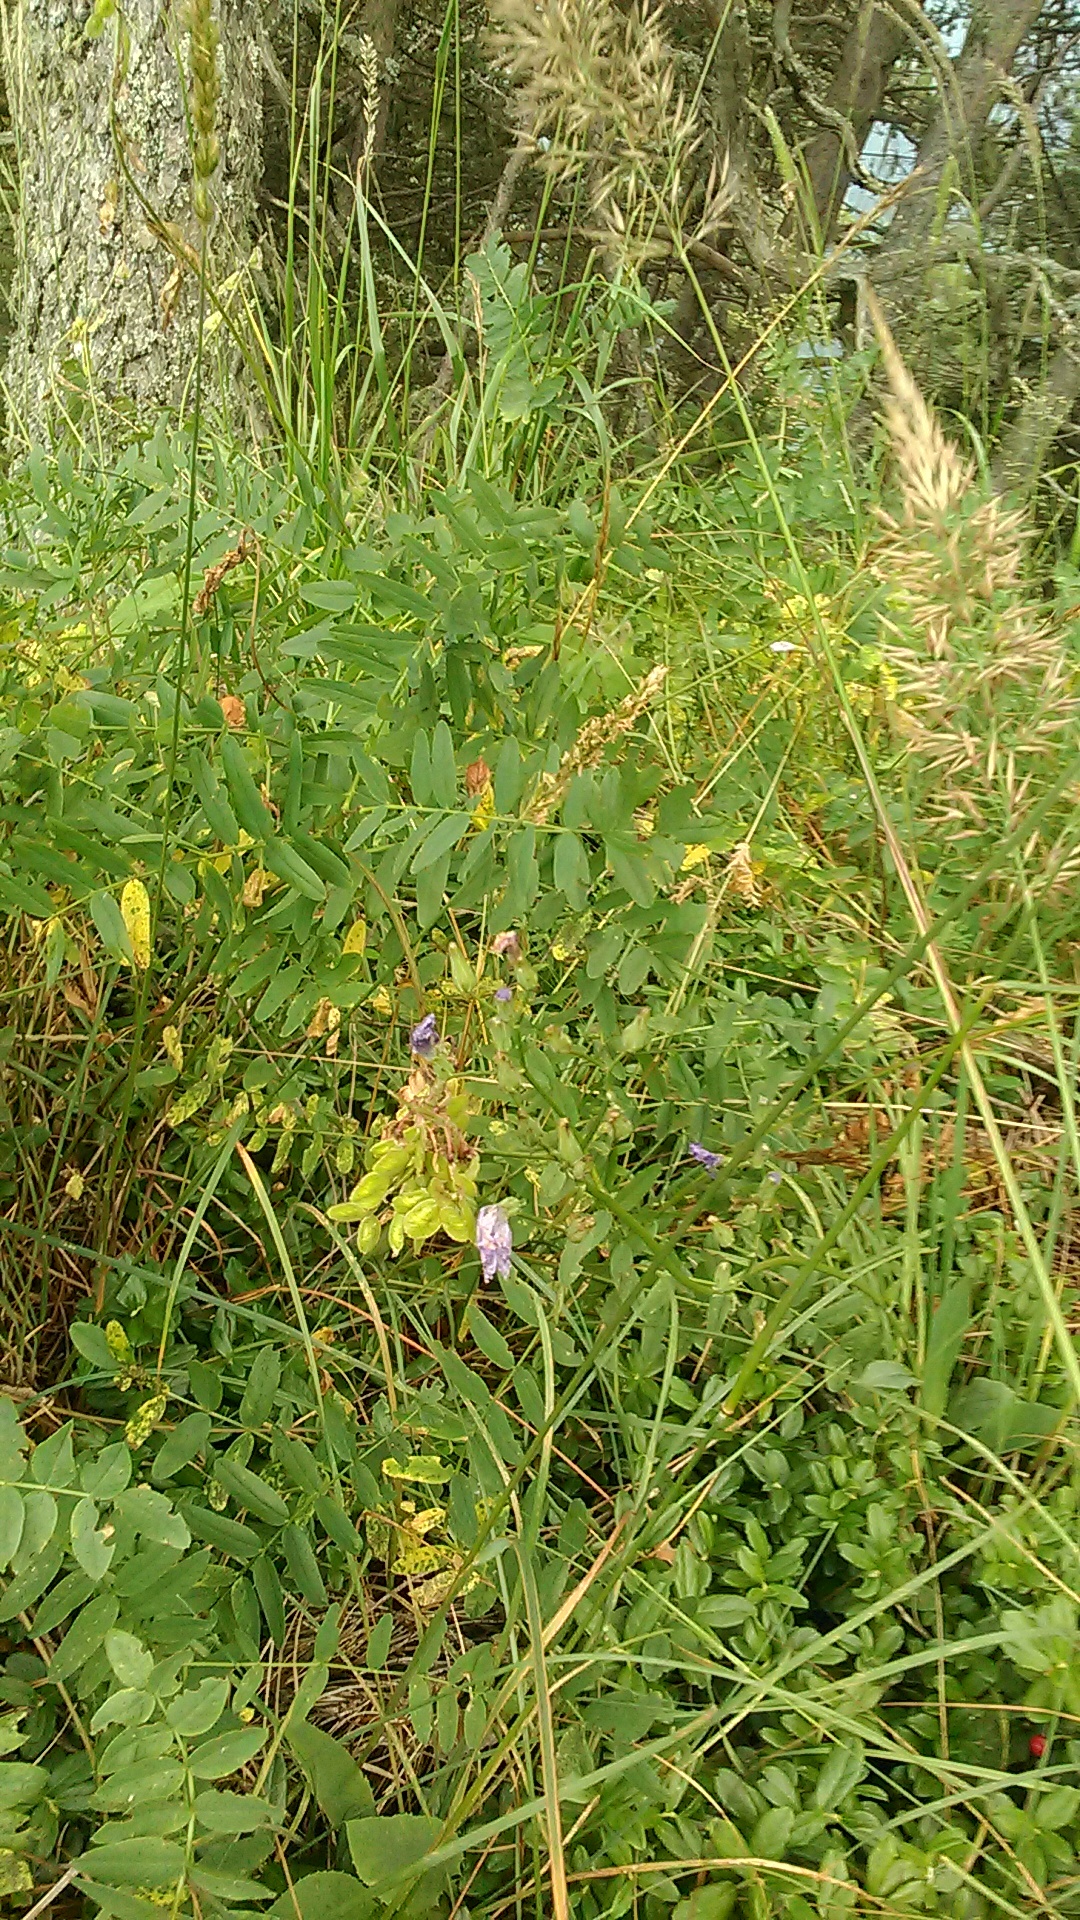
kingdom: Plantae
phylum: Tracheophyta
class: Magnoliopsida
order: Fabales
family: Fabaceae
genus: Hedysarum
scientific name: Hedysarum caucasicum
